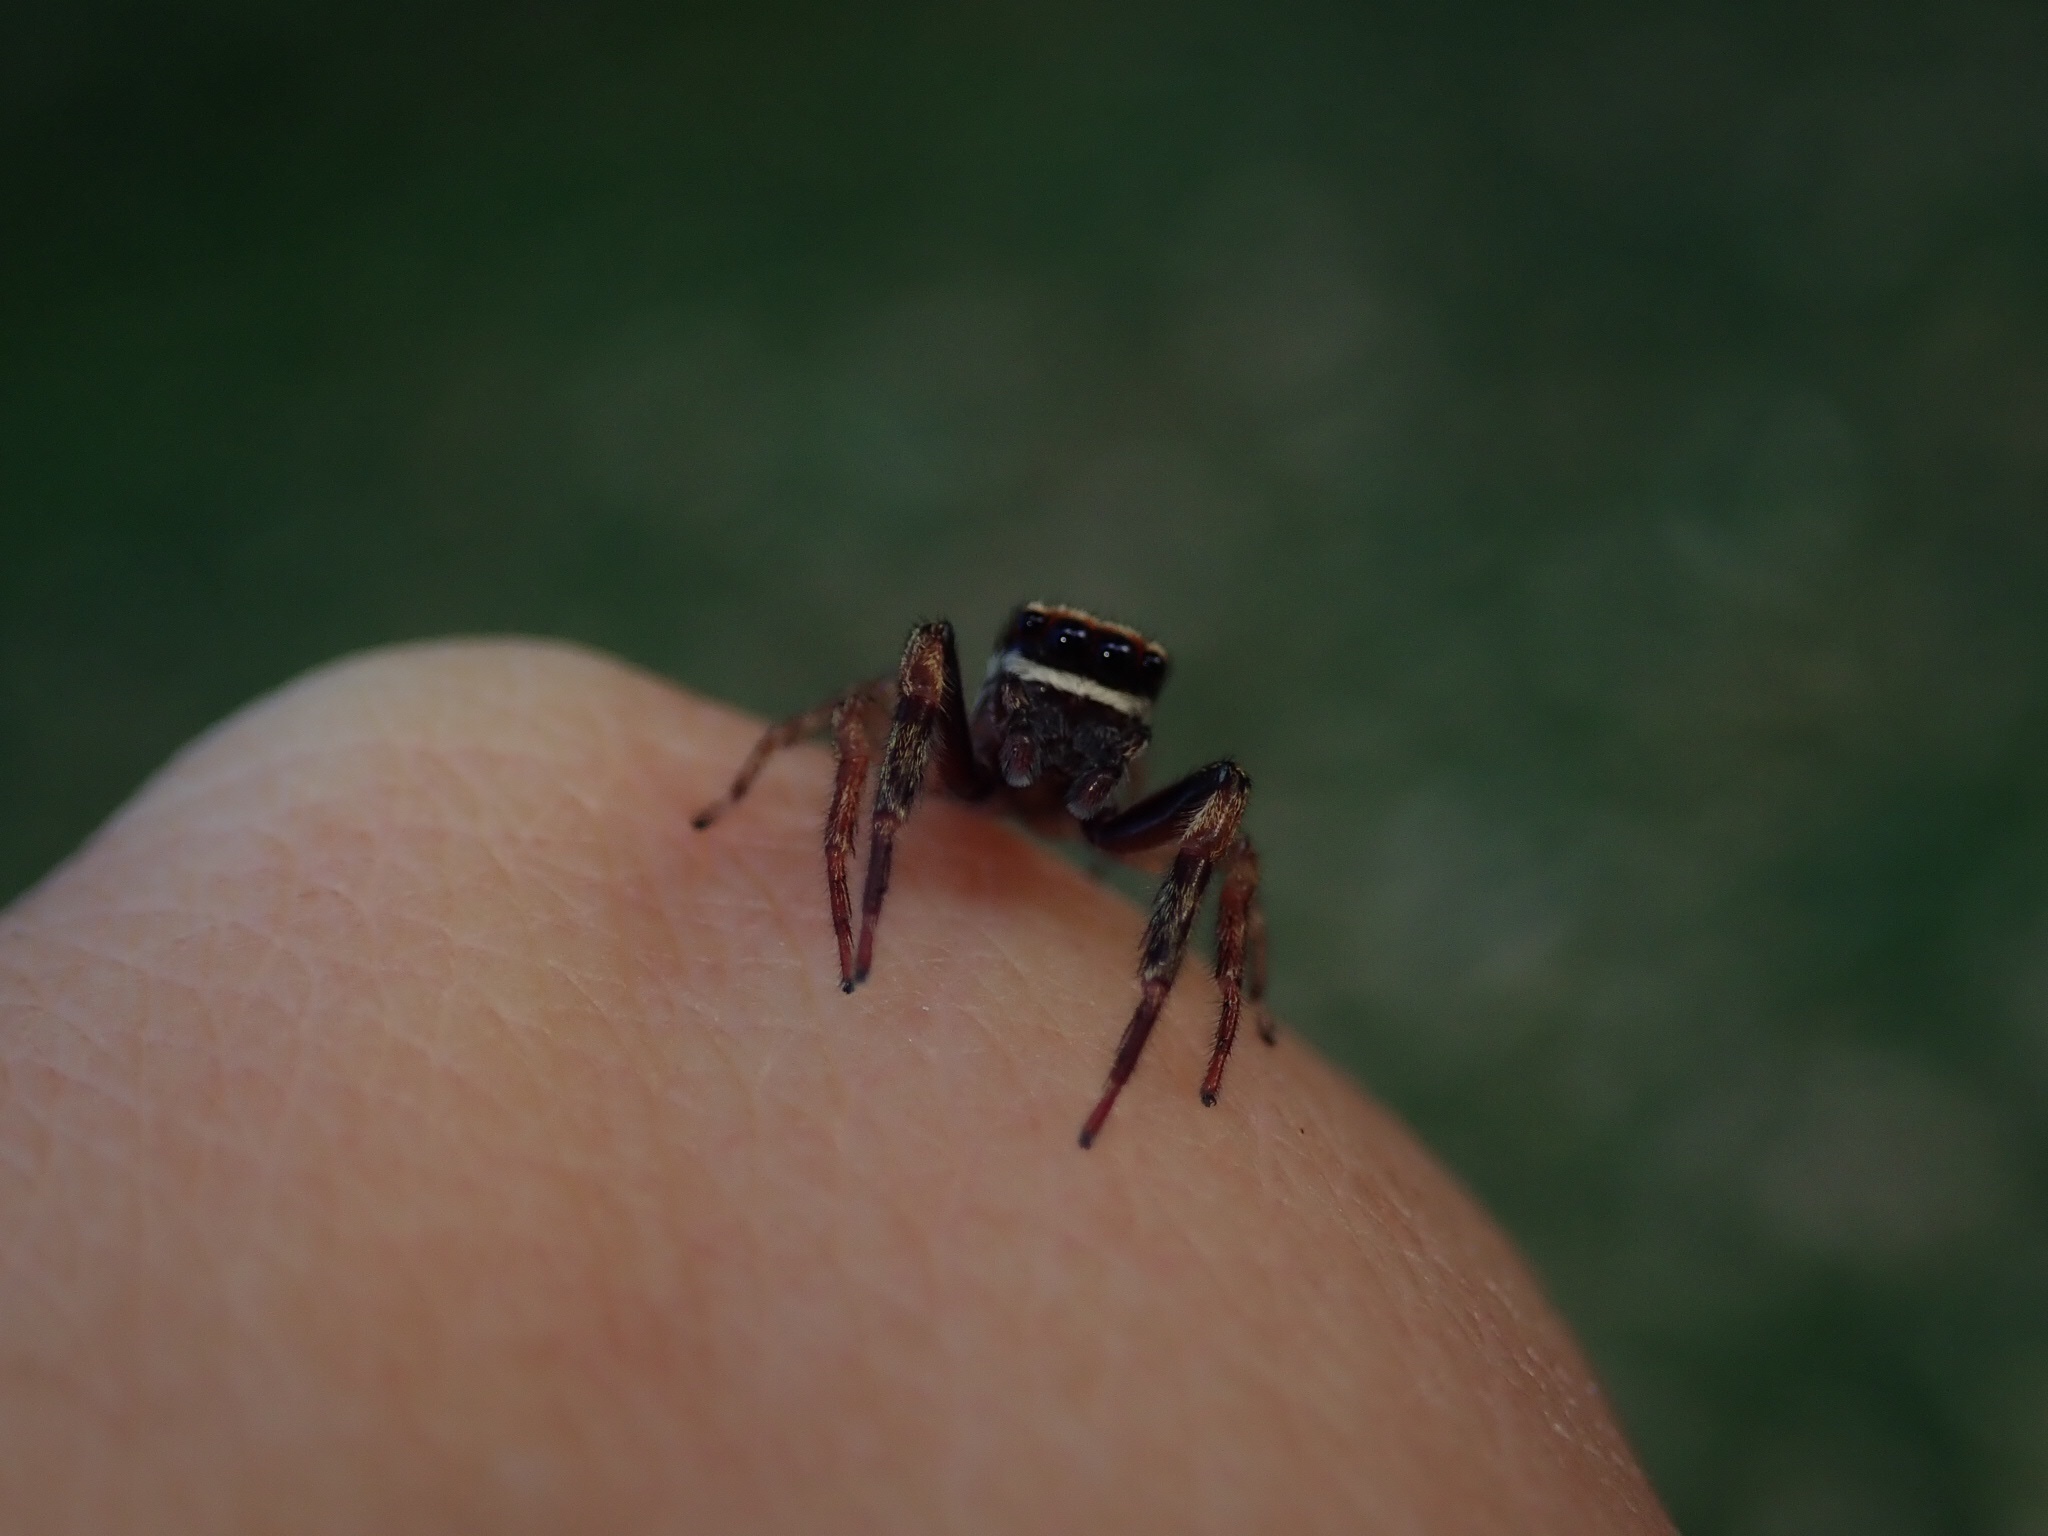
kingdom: Animalia
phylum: Arthropoda
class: Arachnida
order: Araneae
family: Salticidae
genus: Trite
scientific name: Trite auricoma
